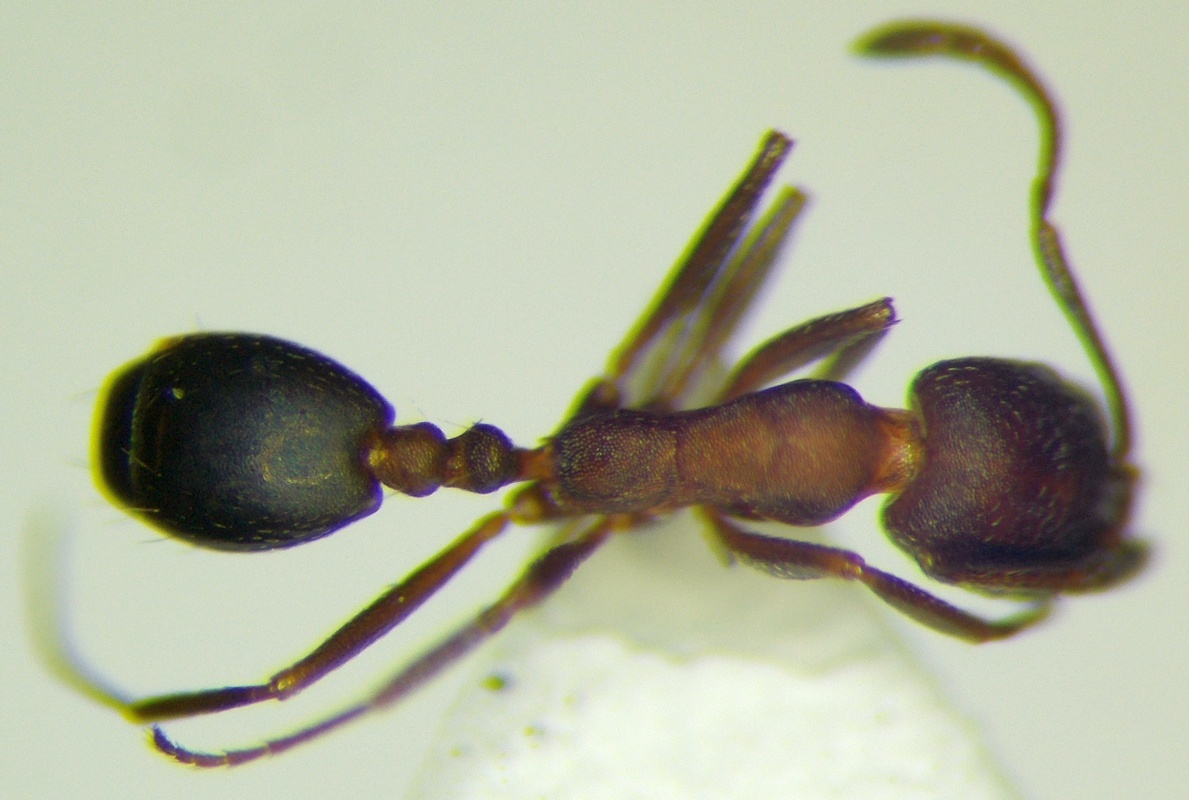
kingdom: Animalia
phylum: Arthropoda
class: Insecta
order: Hymenoptera
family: Formicidae
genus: Monomorium
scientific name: Monomorium bicolor
